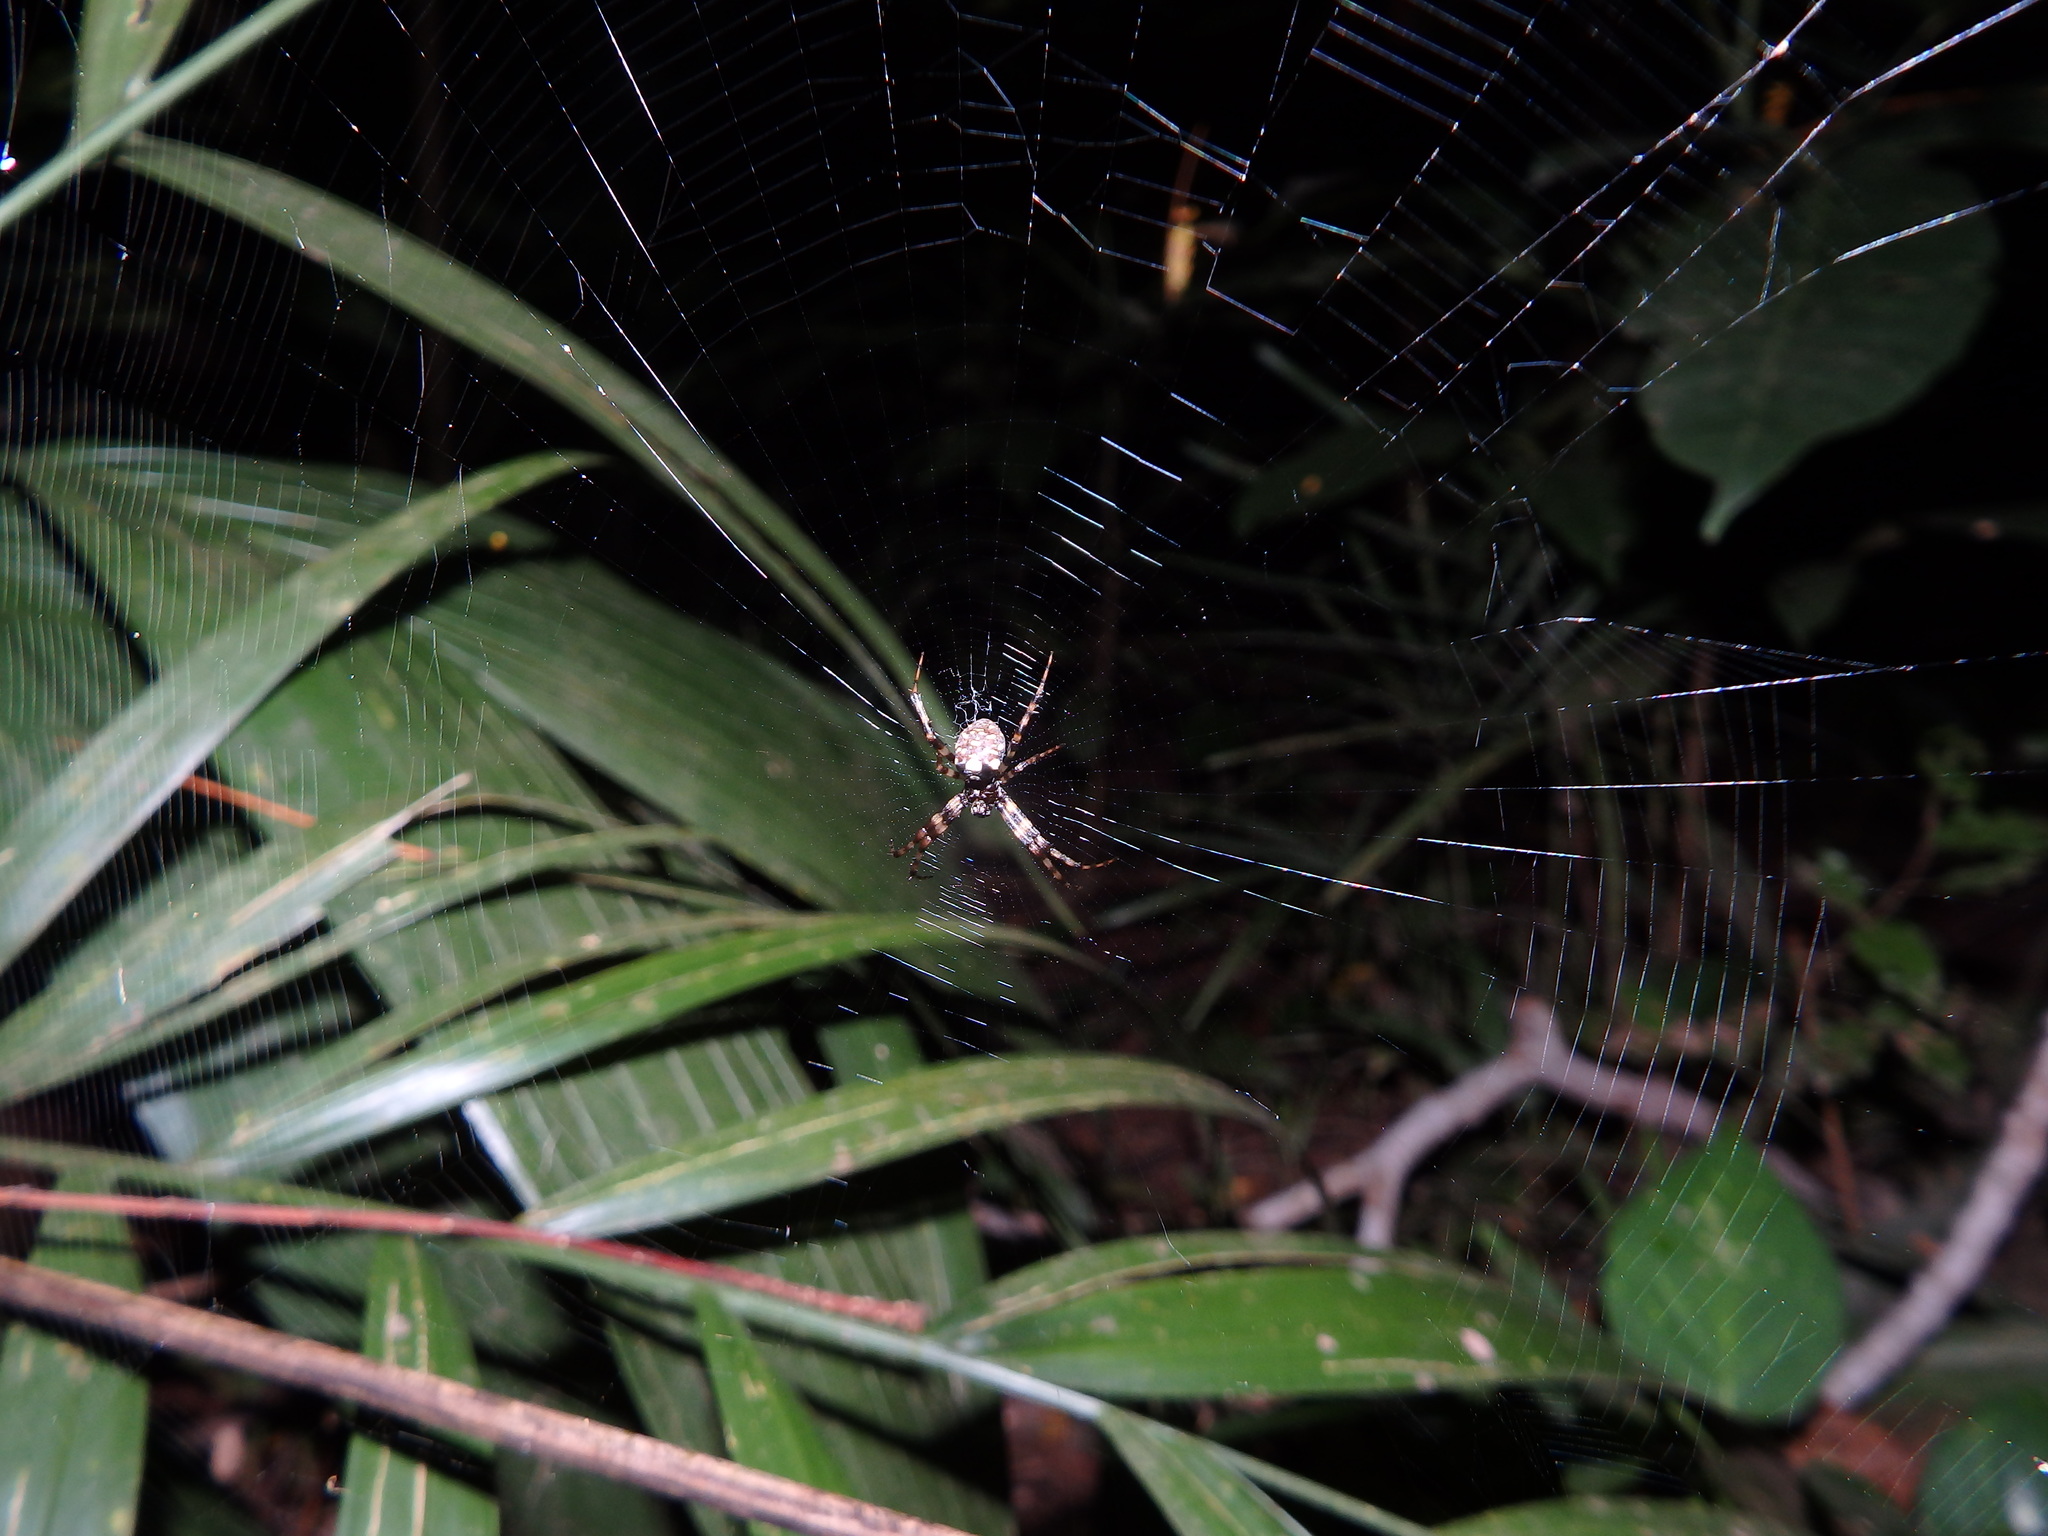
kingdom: Animalia
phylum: Arthropoda
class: Arachnida
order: Araneae
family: Araneidae
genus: Gea
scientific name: Gea spinipes
